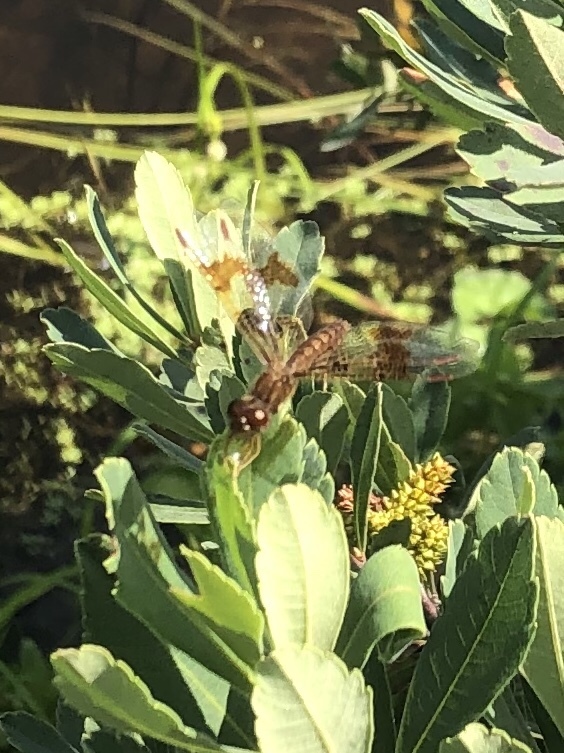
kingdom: Animalia
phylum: Arthropoda
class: Insecta
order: Odonata
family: Libellulidae
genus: Perithemis
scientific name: Perithemis tenera
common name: Eastern amberwing
